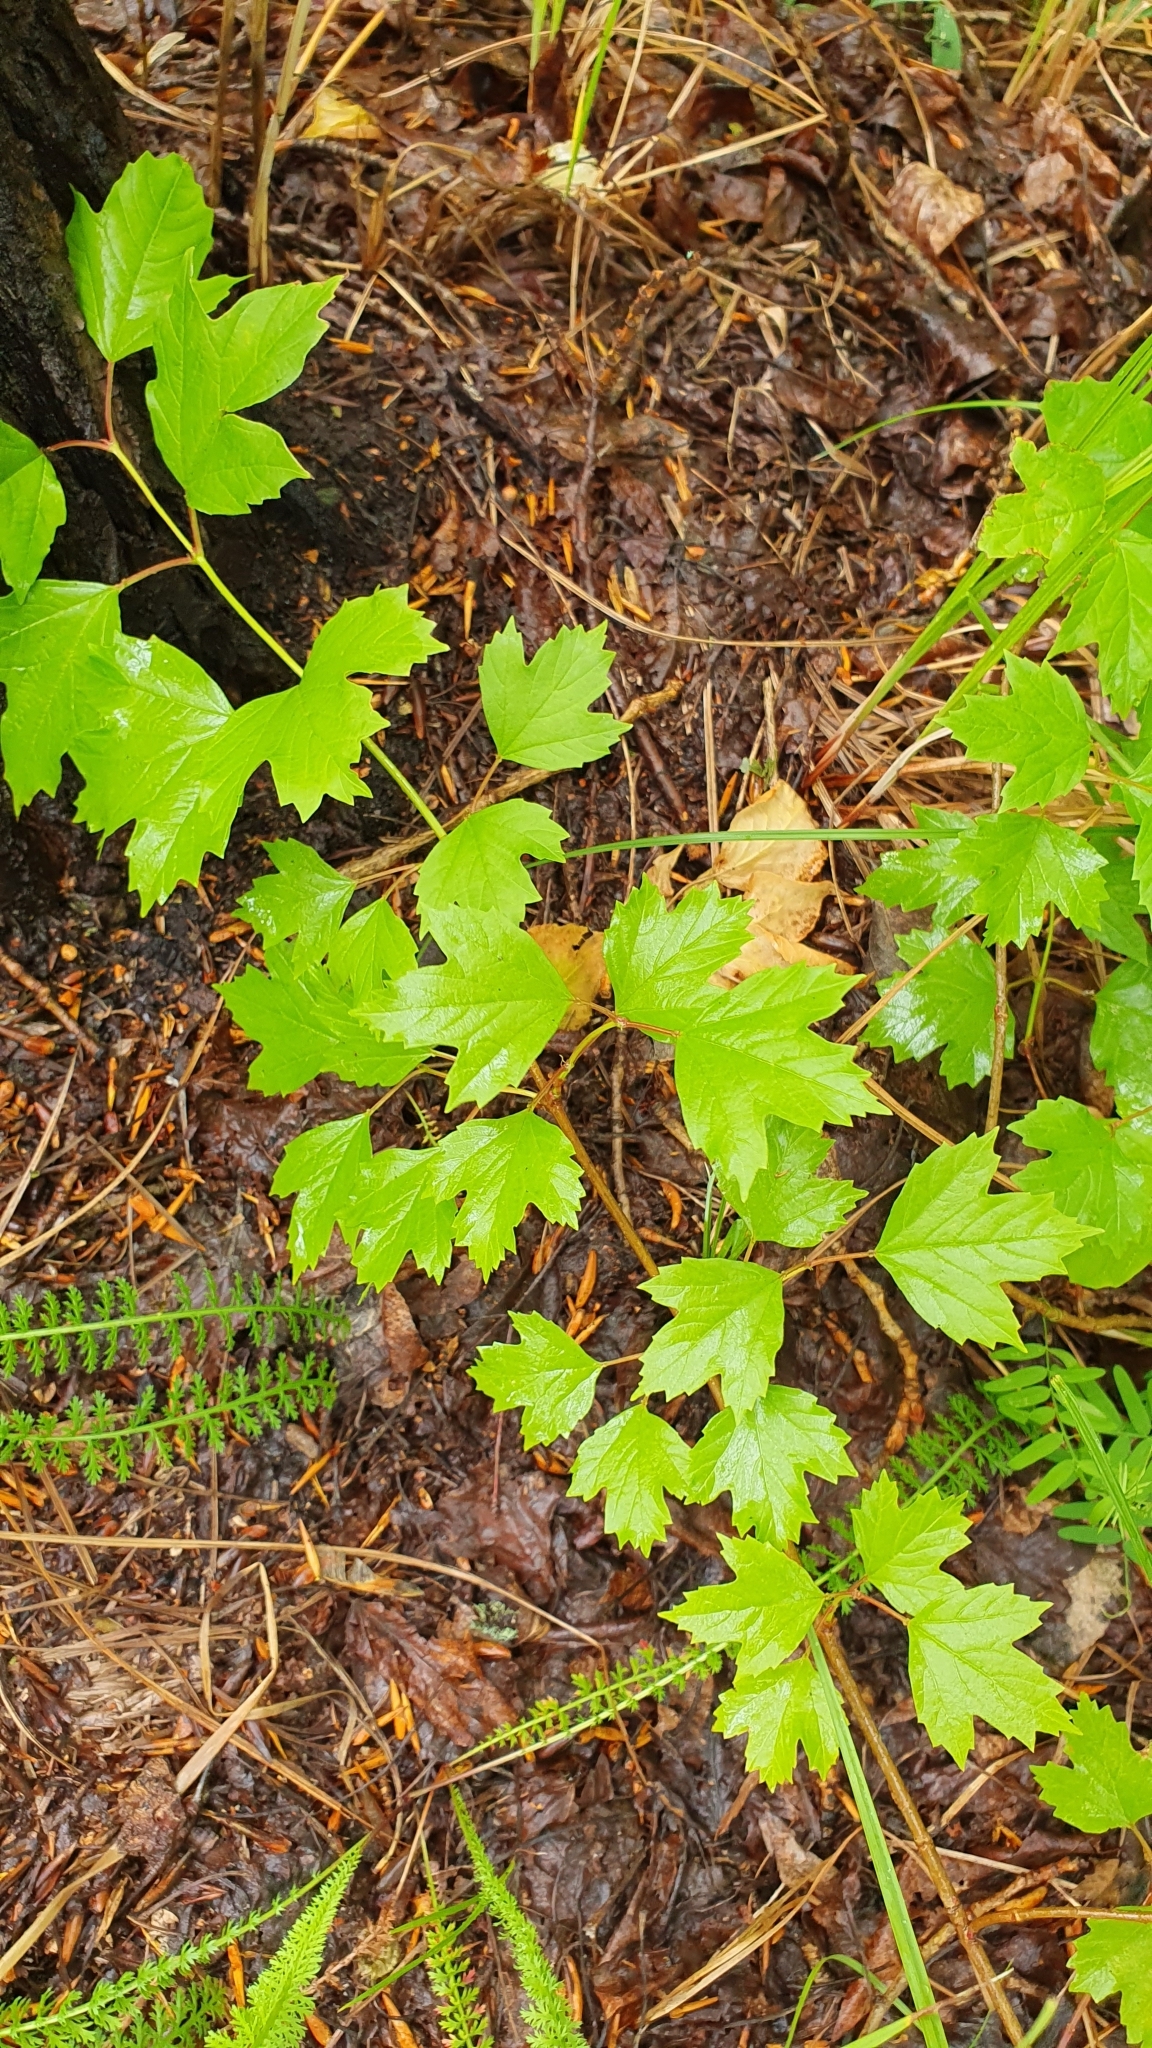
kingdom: Plantae
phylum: Tracheophyta
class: Magnoliopsida
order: Dipsacales
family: Viburnaceae
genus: Viburnum
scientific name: Viburnum opulus
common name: Guelder-rose
